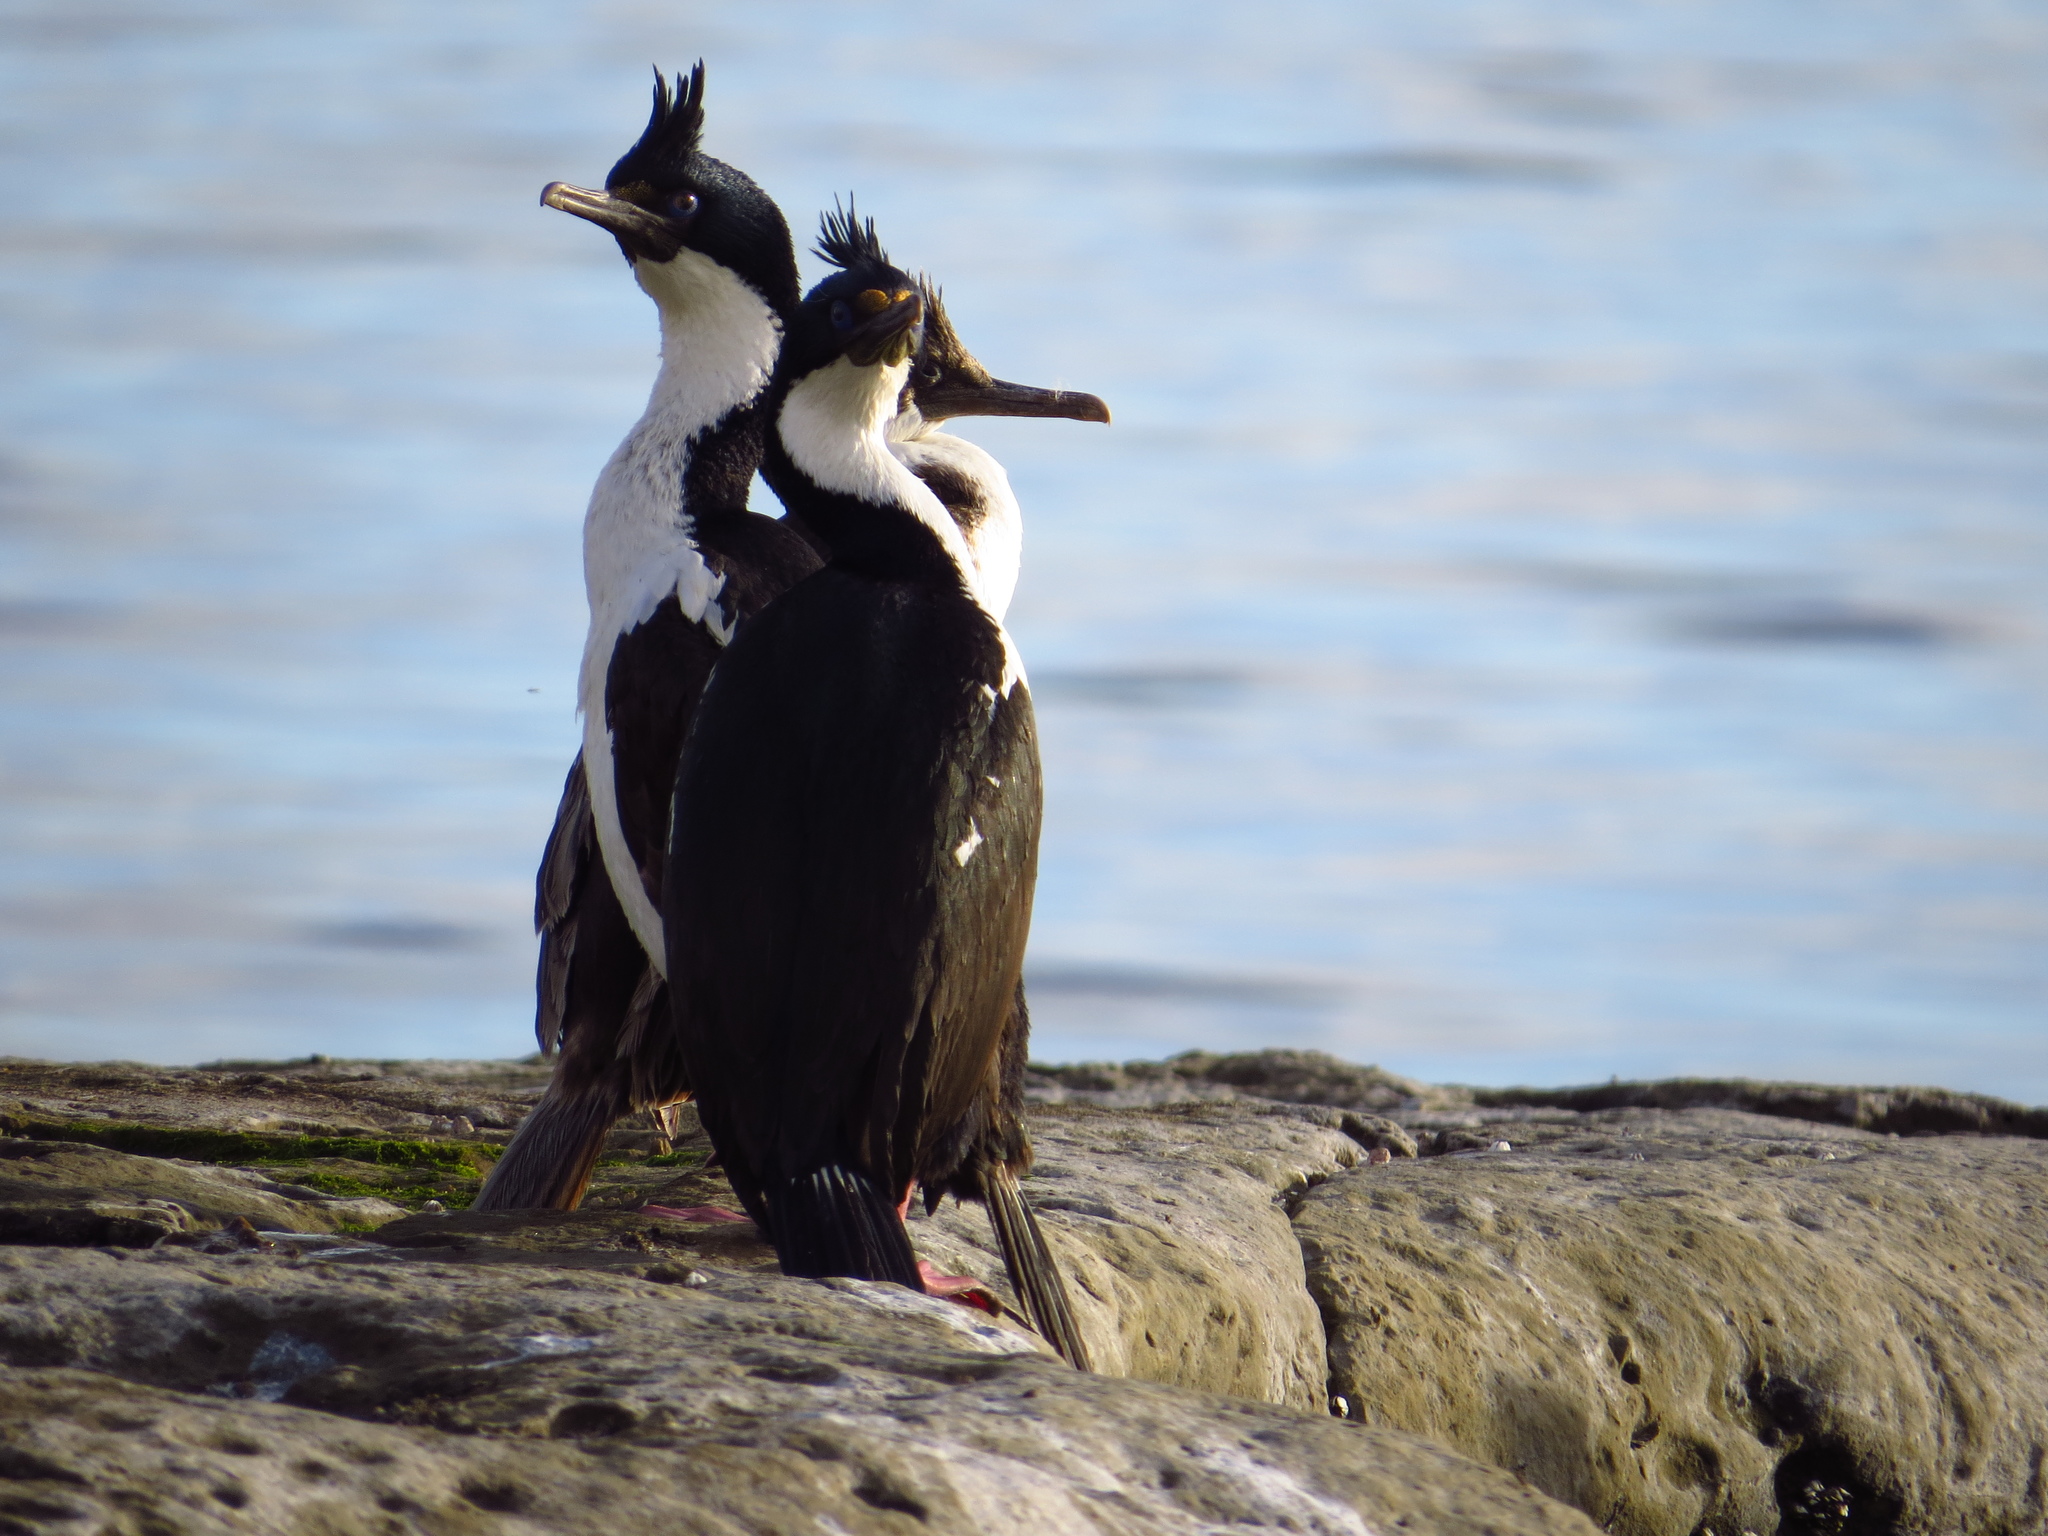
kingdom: Animalia
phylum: Chordata
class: Aves
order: Suliformes
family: Phalacrocoracidae
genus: Leucocarbo
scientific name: Leucocarbo atriceps
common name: Imperial shag
